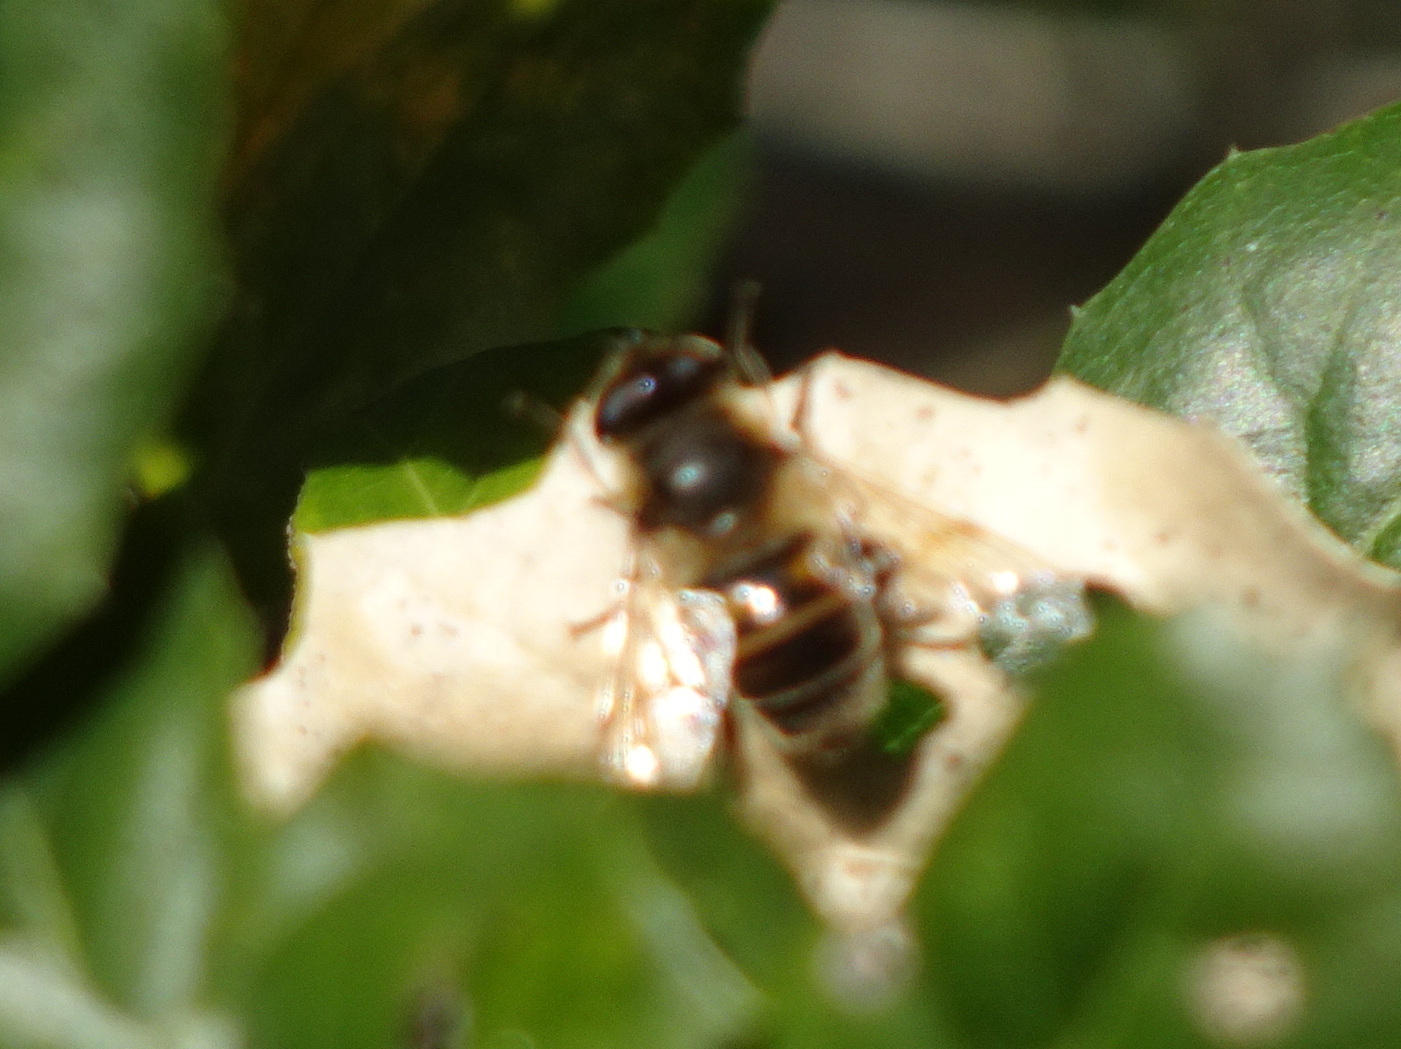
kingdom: Animalia
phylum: Arthropoda
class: Insecta
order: Diptera
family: Syrphidae
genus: Eristalis
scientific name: Eristalis tenax
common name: Drone fly
